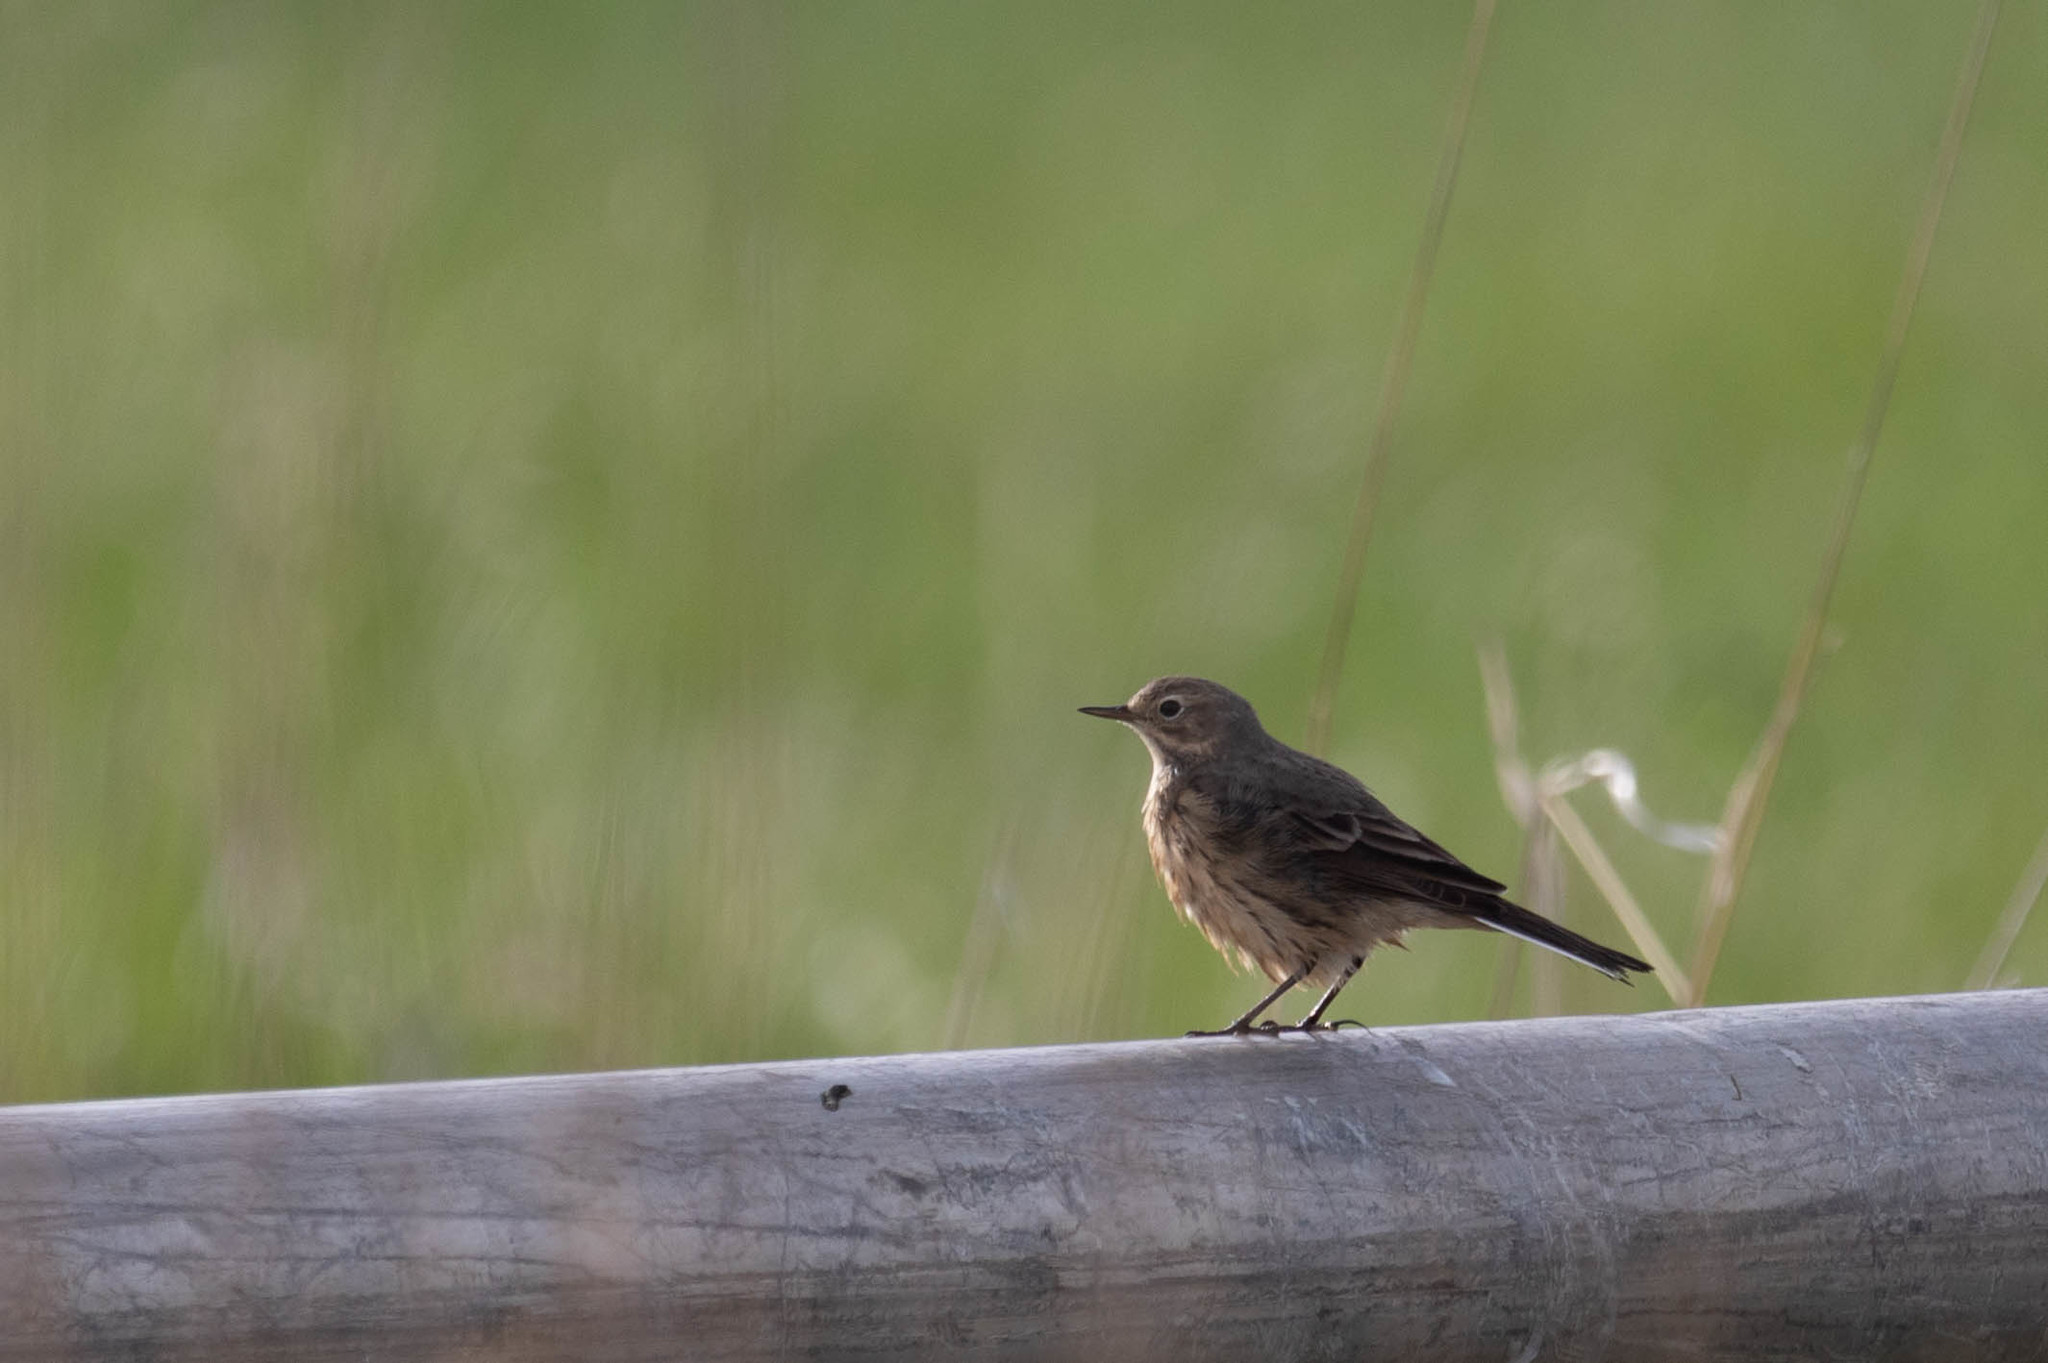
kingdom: Animalia
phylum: Chordata
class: Aves
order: Passeriformes
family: Motacillidae
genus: Anthus
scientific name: Anthus rubescens
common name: Buff-bellied pipit
